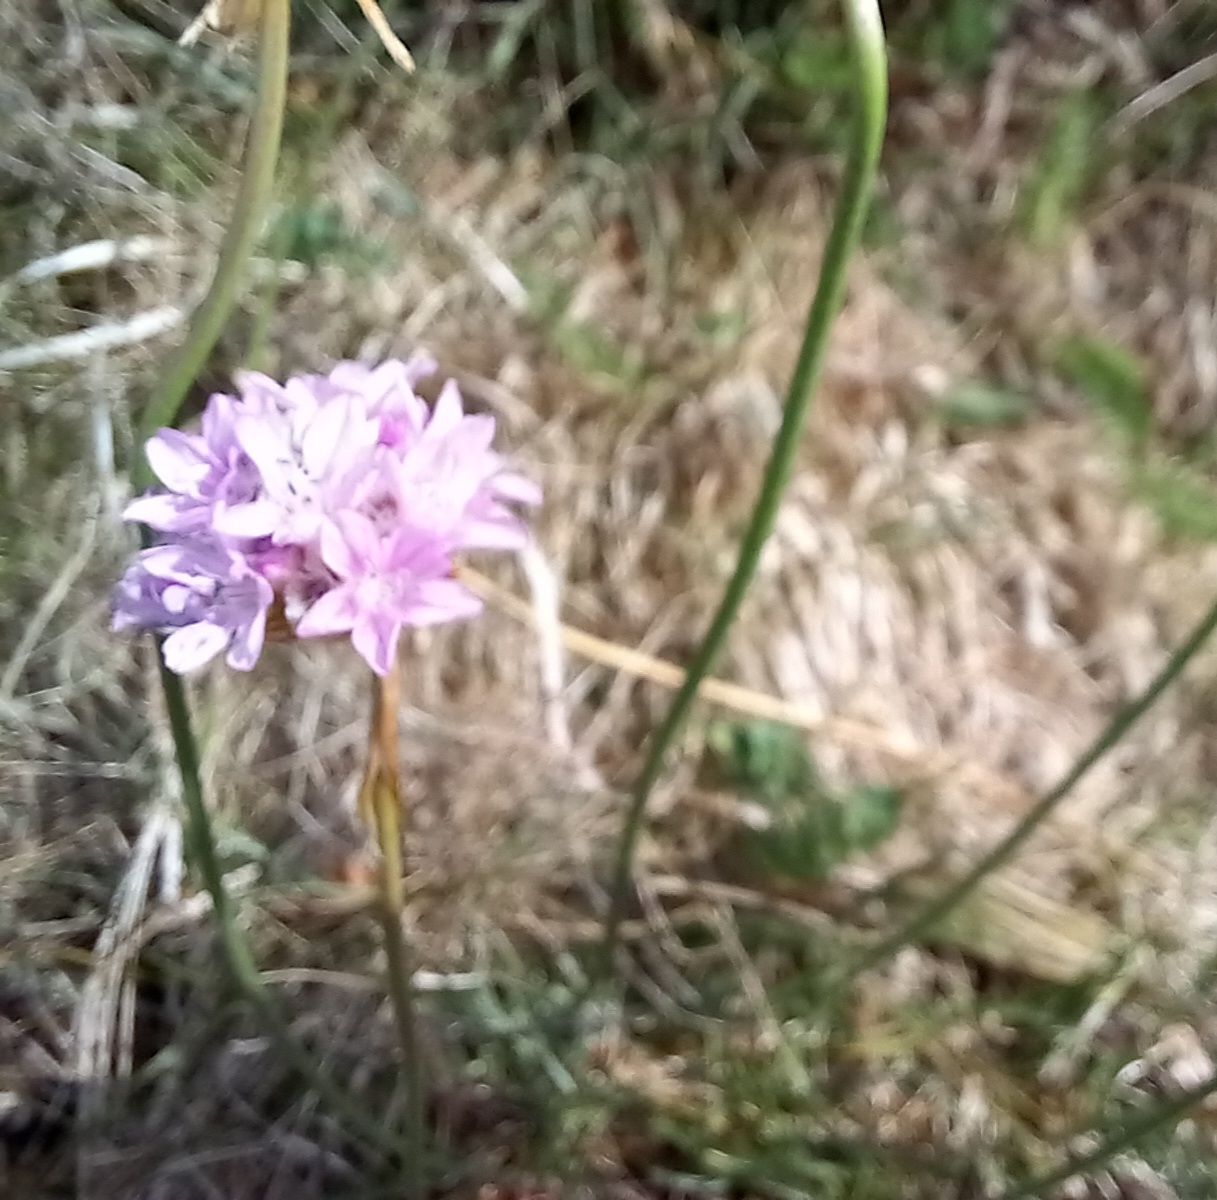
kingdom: Plantae
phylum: Tracheophyta
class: Magnoliopsida
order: Caryophyllales
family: Plumbaginaceae
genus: Armeria
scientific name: Armeria maritima
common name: Thrift
